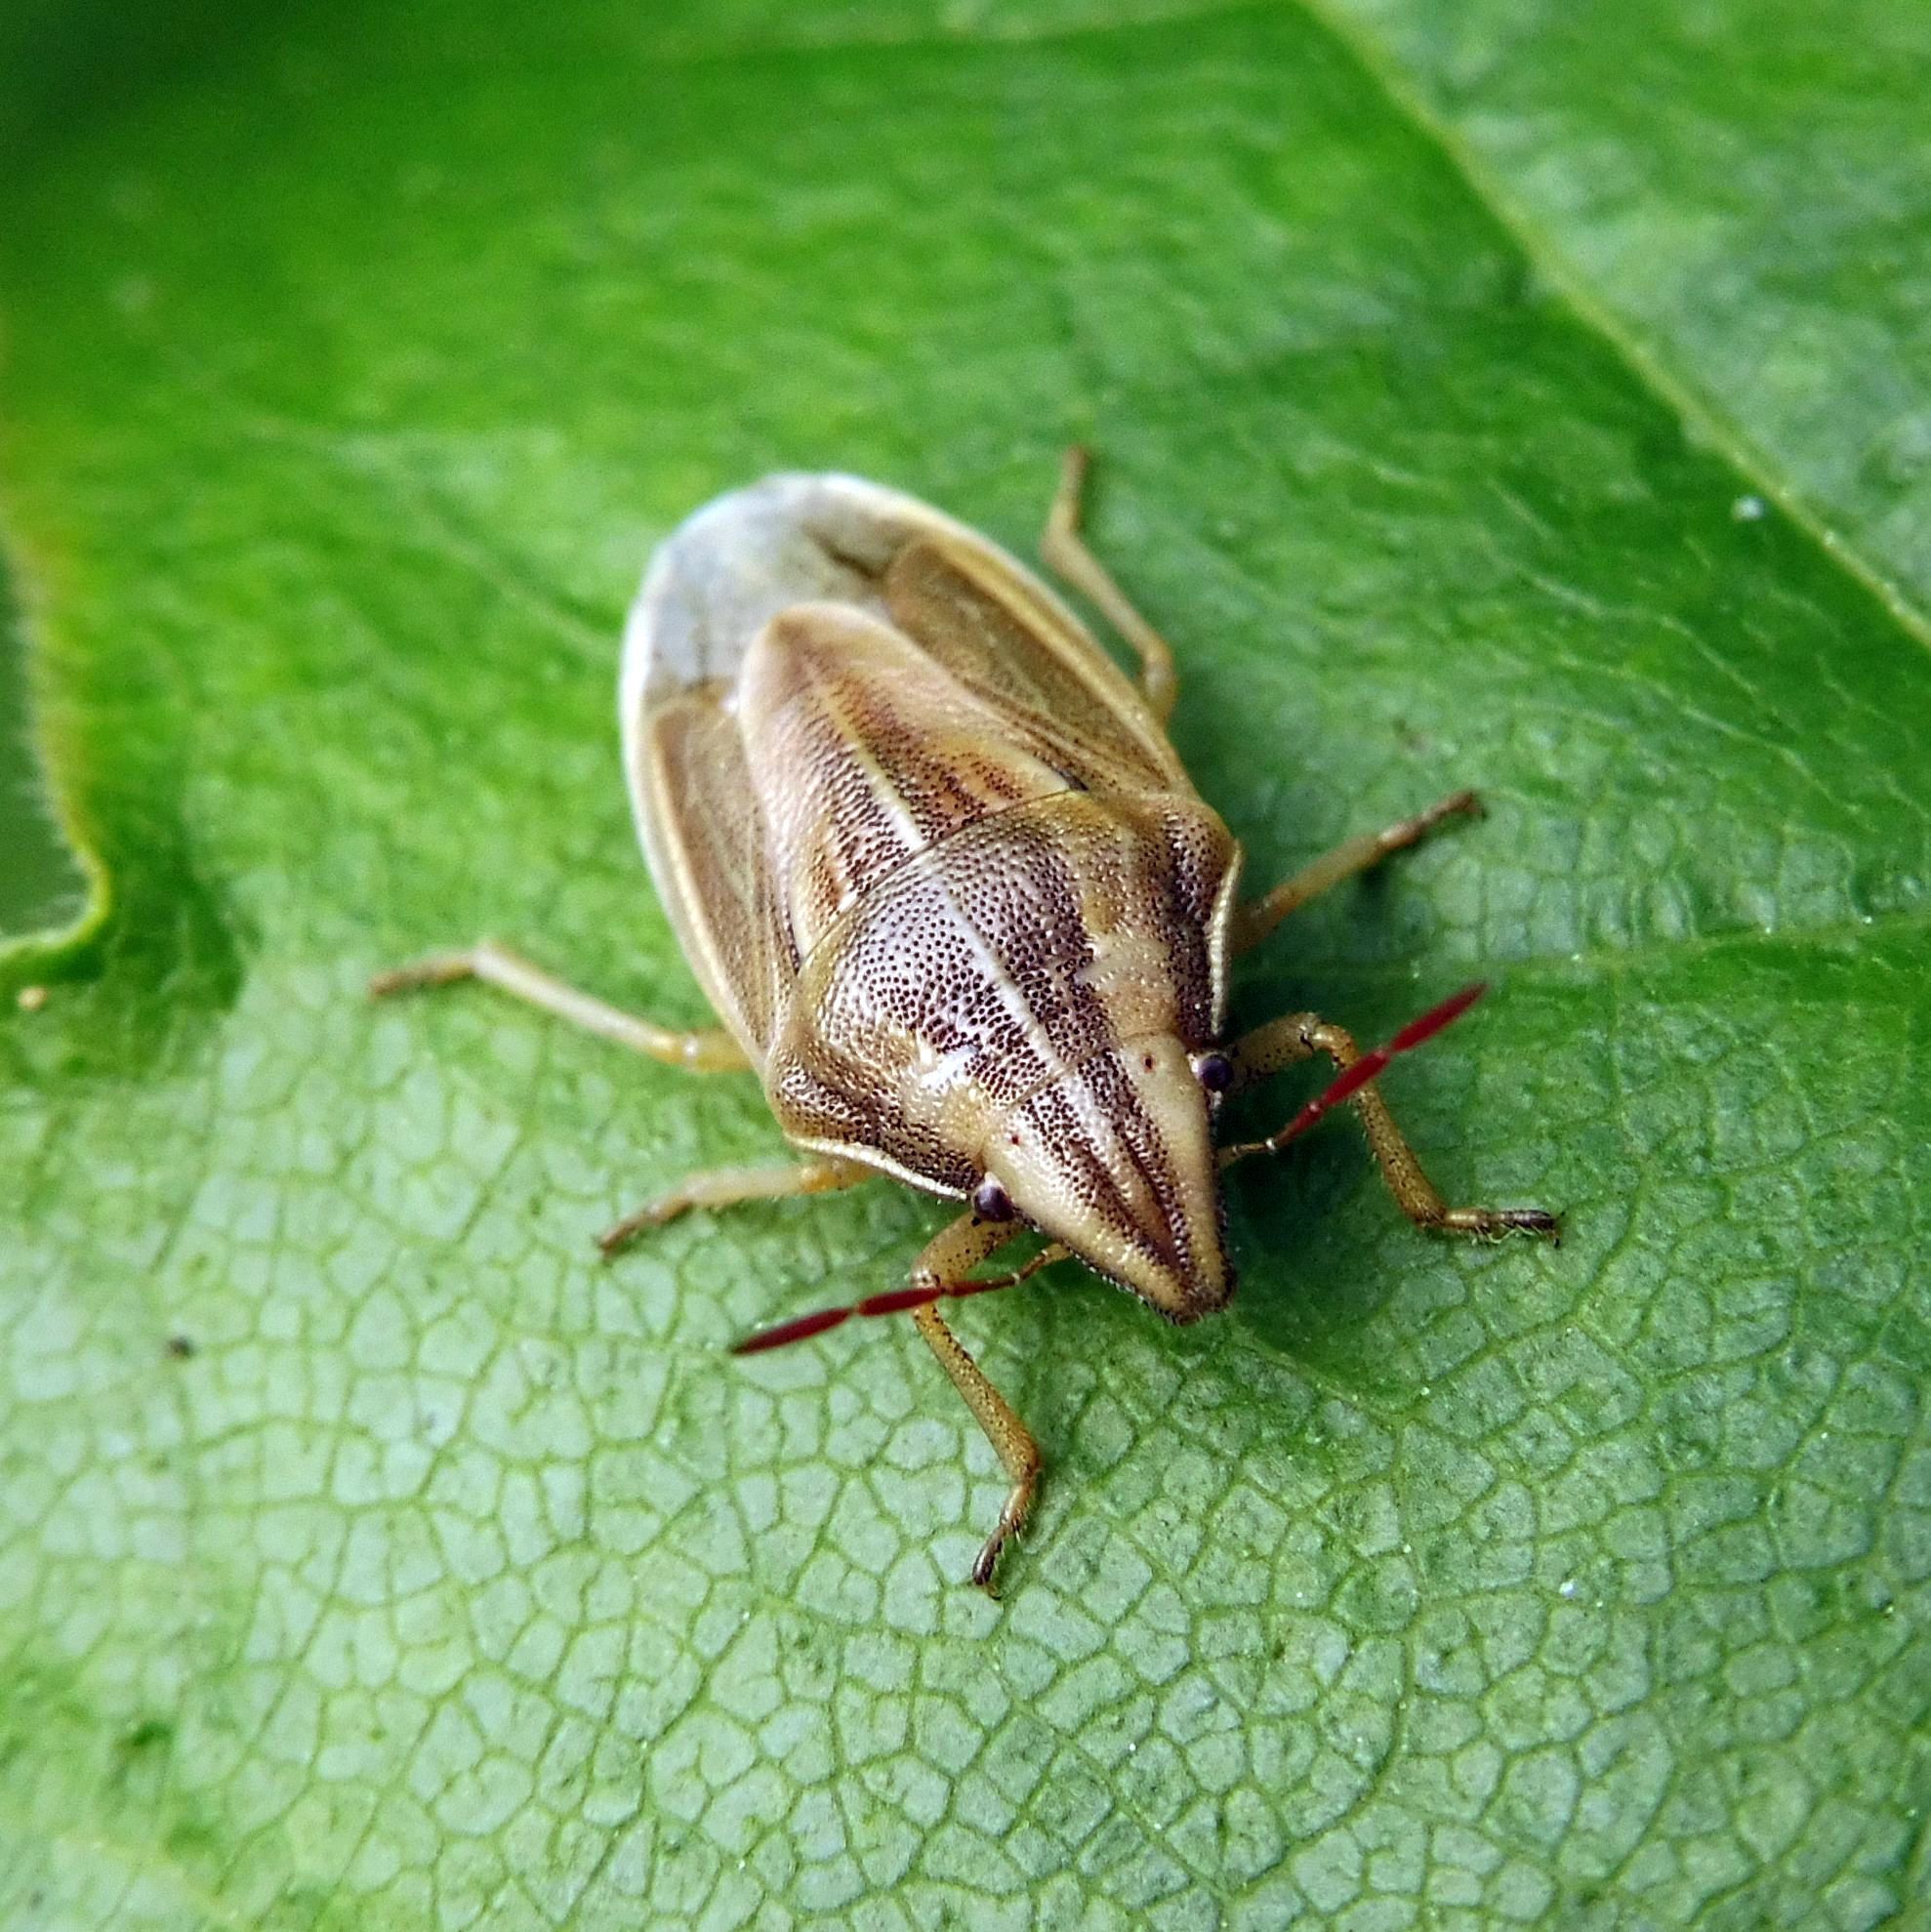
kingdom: Animalia
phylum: Arthropoda
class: Insecta
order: Hemiptera
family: Pentatomidae
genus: Aelia
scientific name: Aelia acuminata
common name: Bishop's mitre
